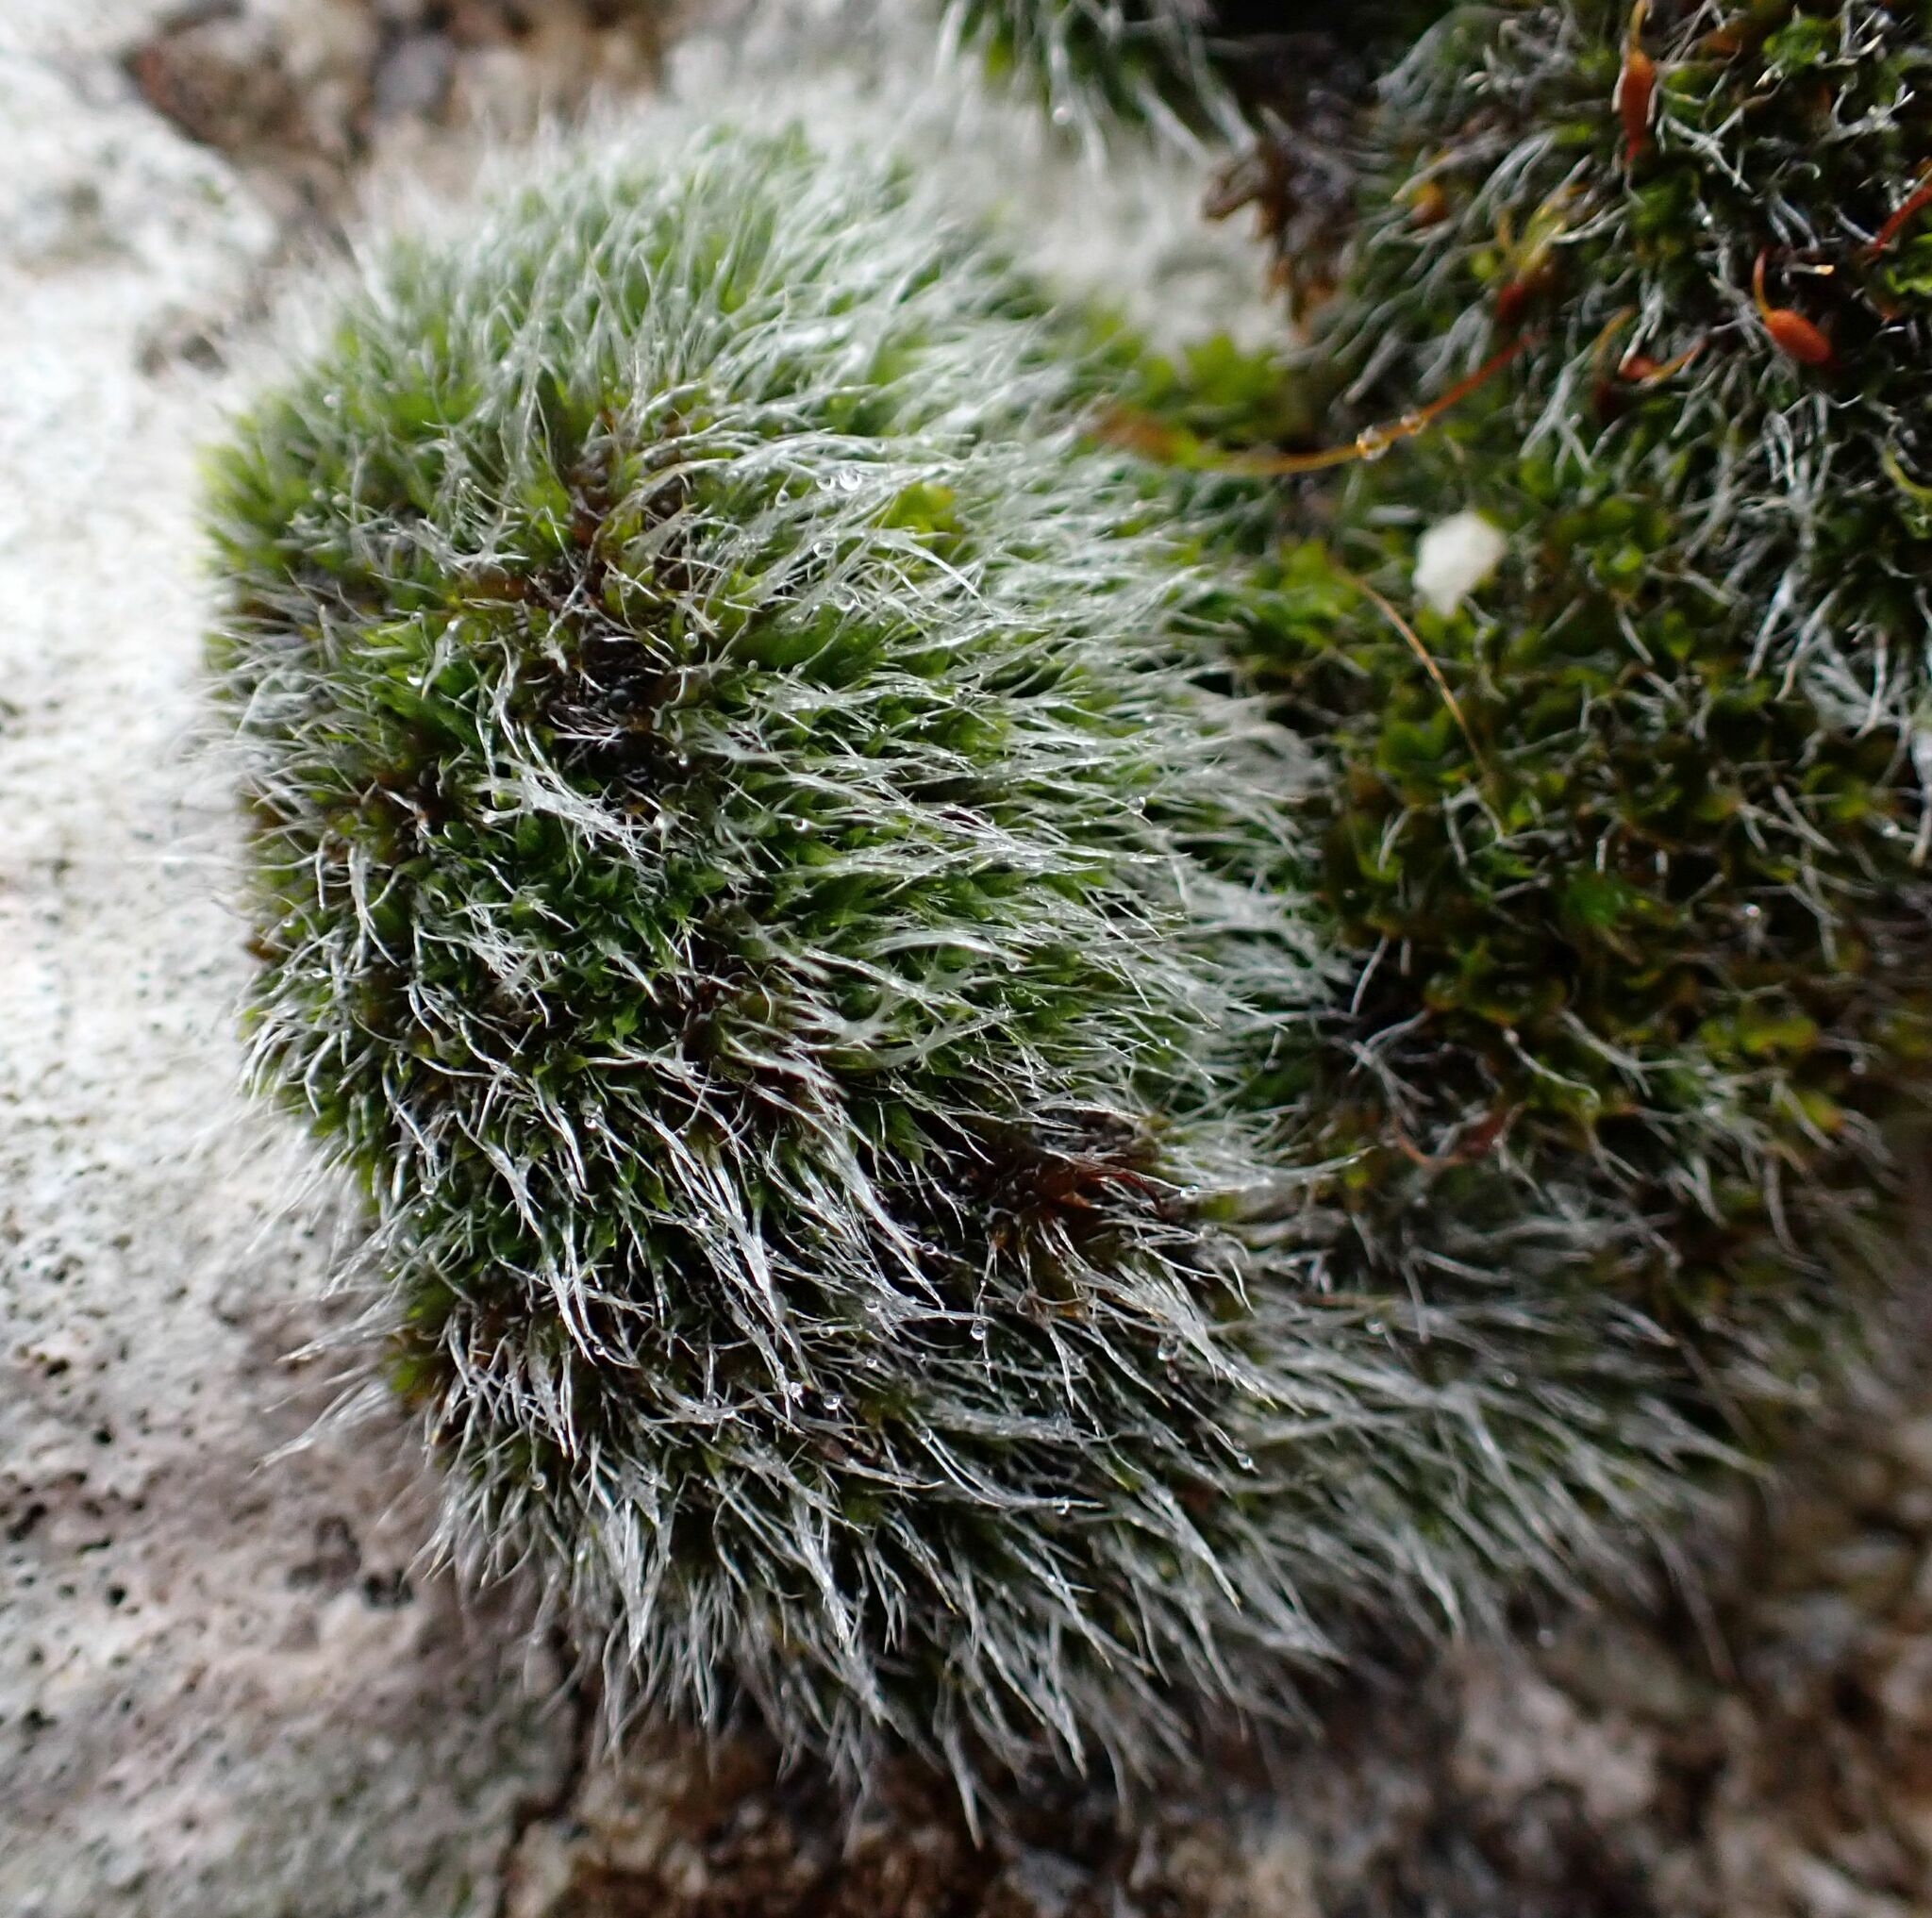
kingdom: Plantae
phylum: Bryophyta
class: Bryopsida
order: Grimmiales
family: Grimmiaceae
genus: Grimmia
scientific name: Grimmia pulvinata
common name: Grey-cushioned grimmia
